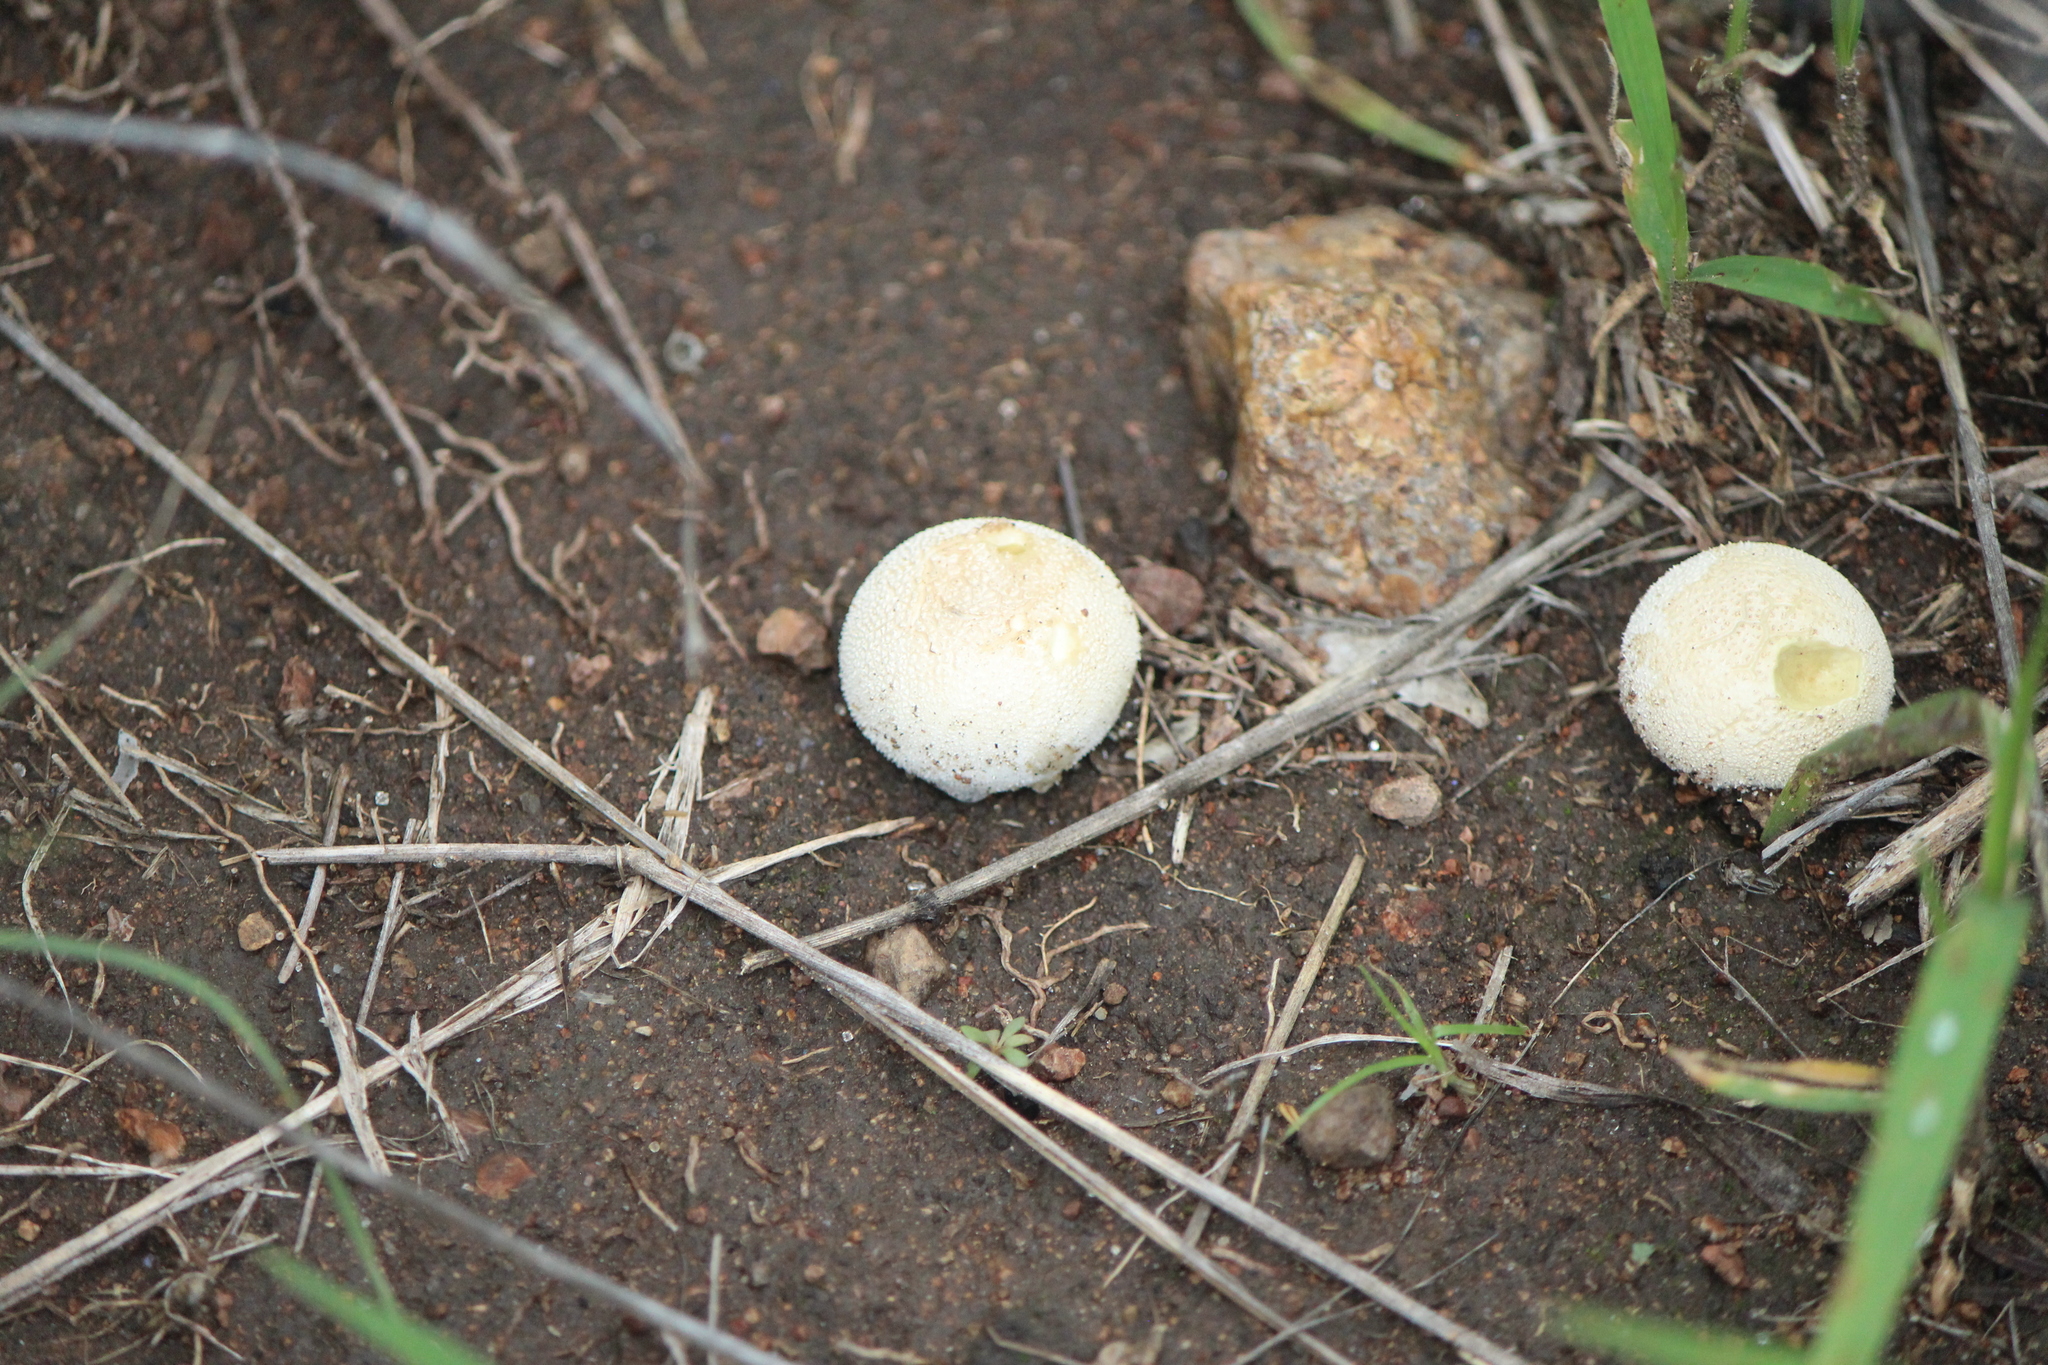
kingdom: Fungi
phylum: Basidiomycota
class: Agaricomycetes
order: Agaricales
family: Lycoperdaceae
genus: Lycoperdon
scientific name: Lycoperdon perlatum
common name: Common puffball
